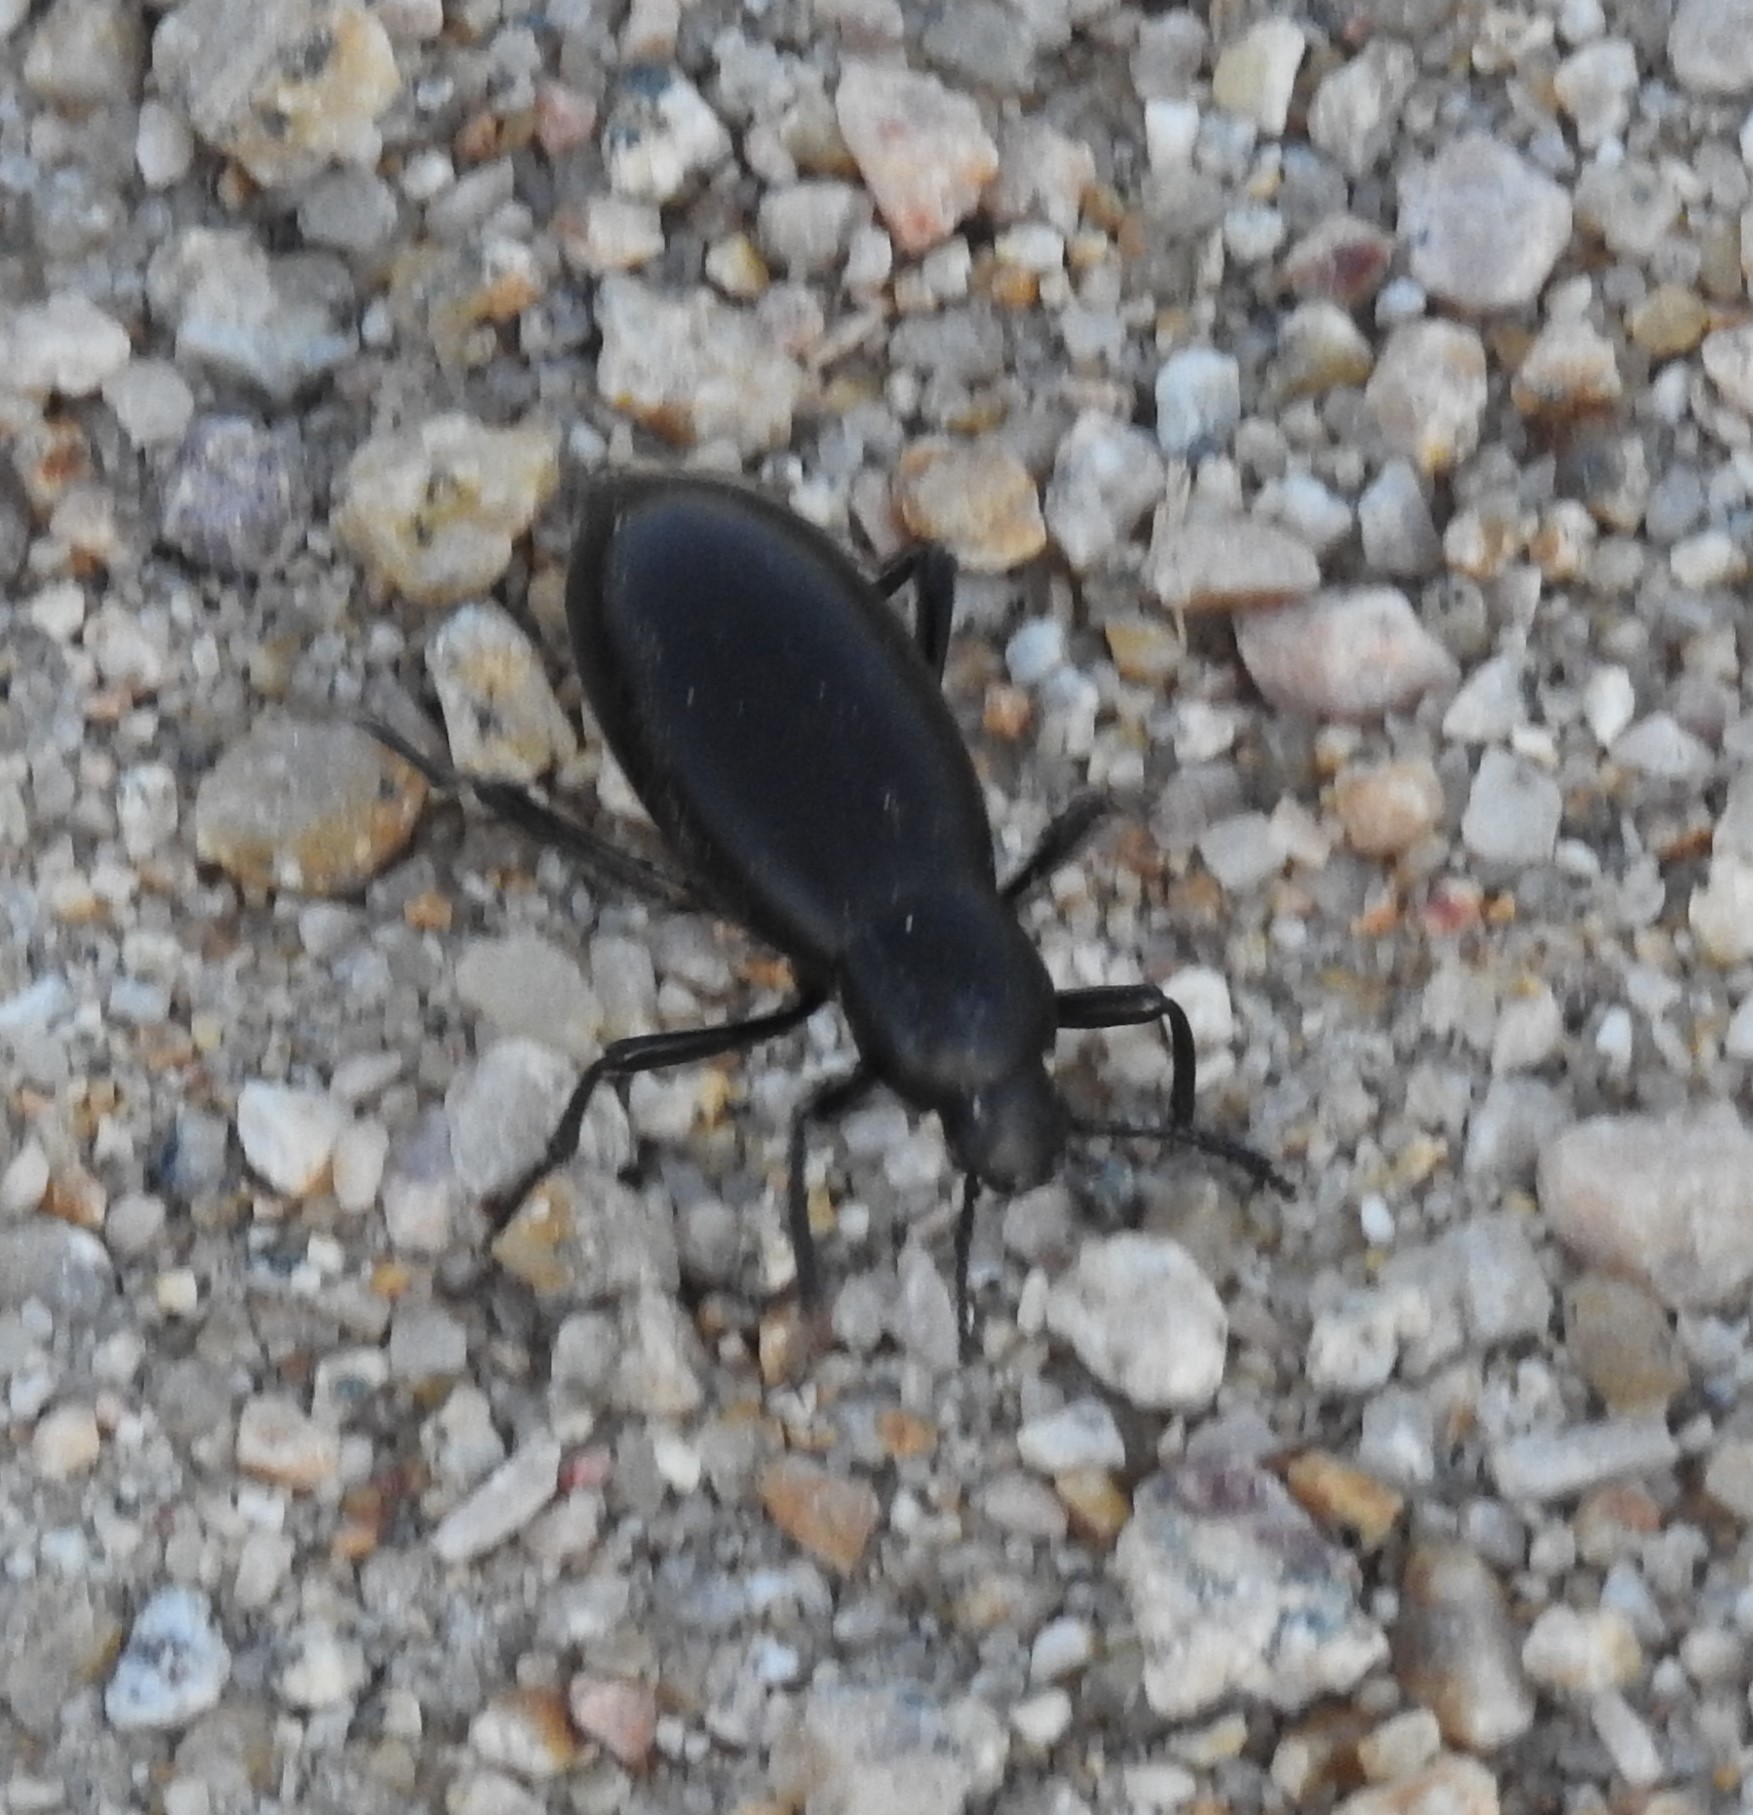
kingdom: Animalia
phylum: Arthropoda
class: Insecta
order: Coleoptera
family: Tenebrionidae
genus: Eleodes
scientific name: Eleodes longicollis
